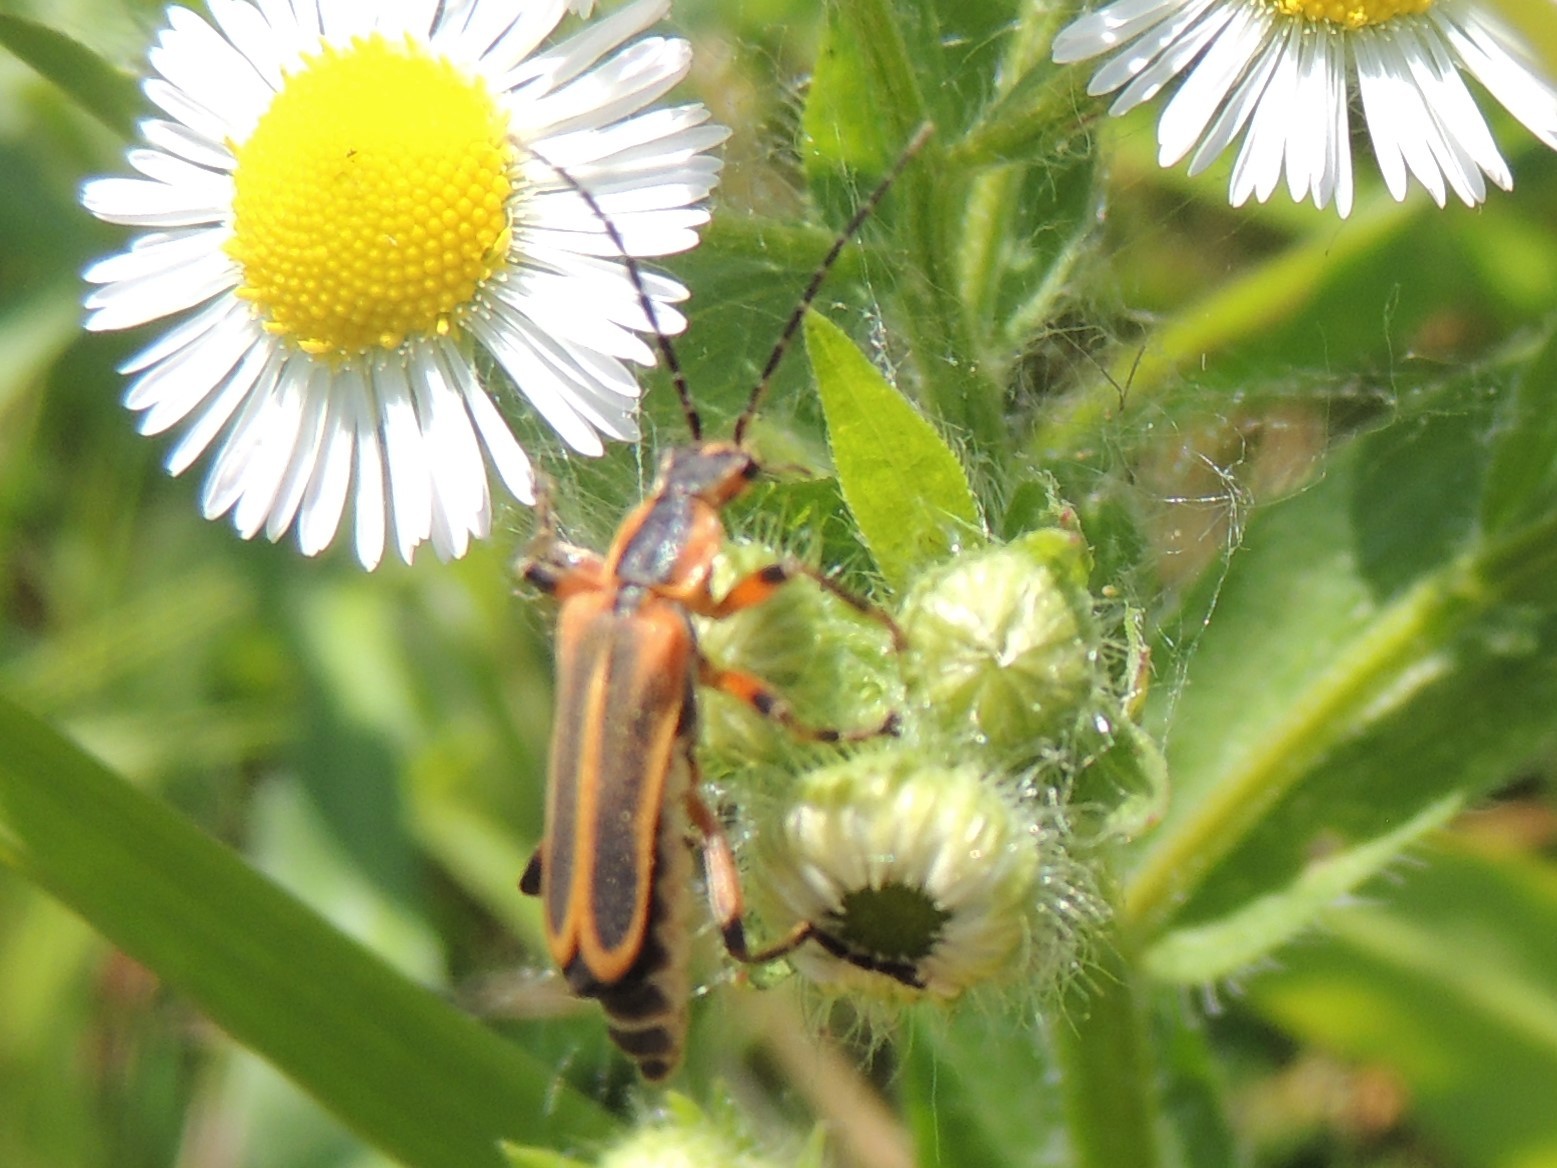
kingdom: Animalia
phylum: Arthropoda
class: Insecta
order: Coleoptera
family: Cantharidae
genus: Chauliognathus
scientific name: Chauliognathus marginatus
